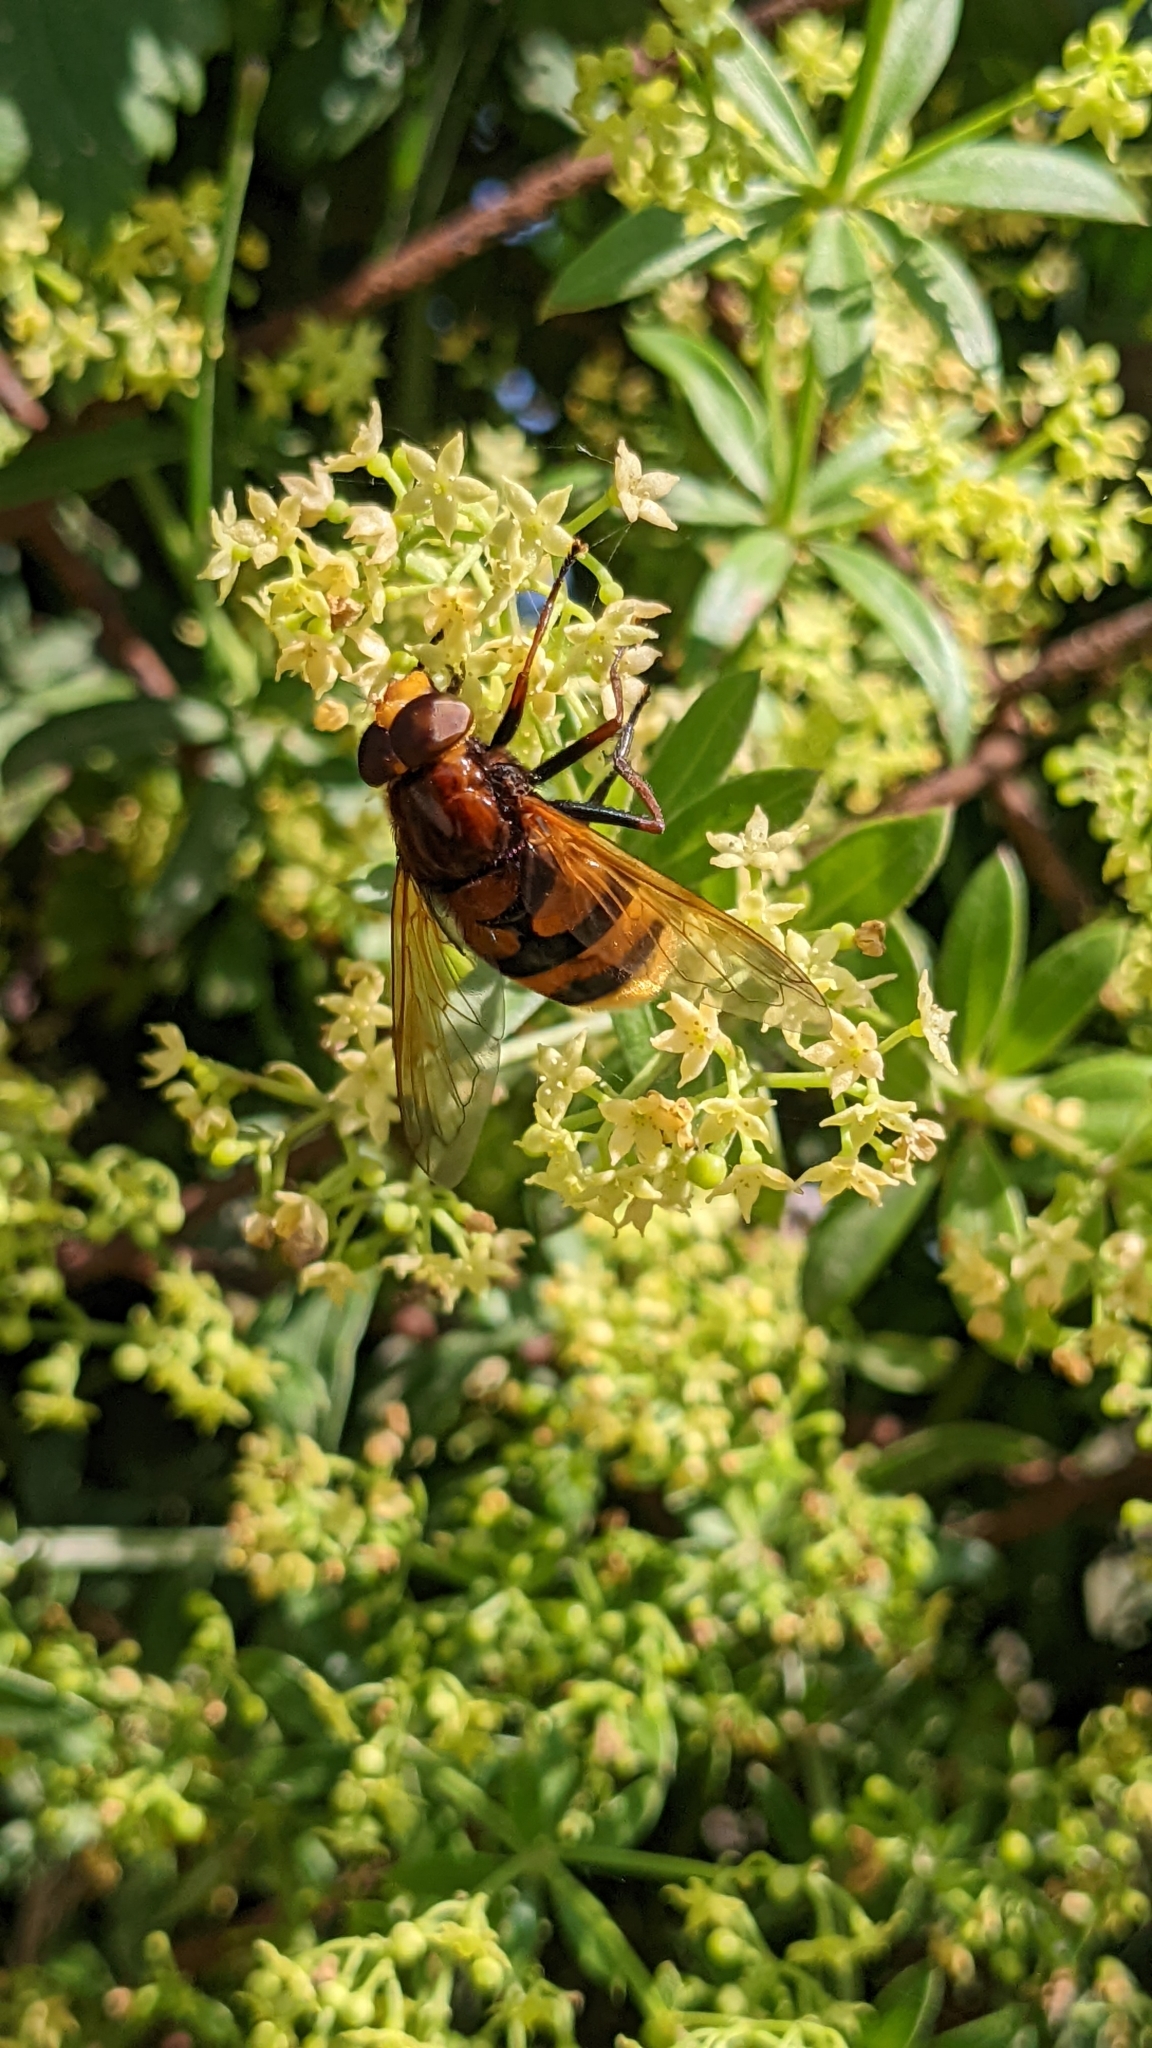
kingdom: Animalia
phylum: Arthropoda
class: Insecta
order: Diptera
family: Syrphidae
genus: Volucella
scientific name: Volucella zonaria
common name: Hornet hoverfly
